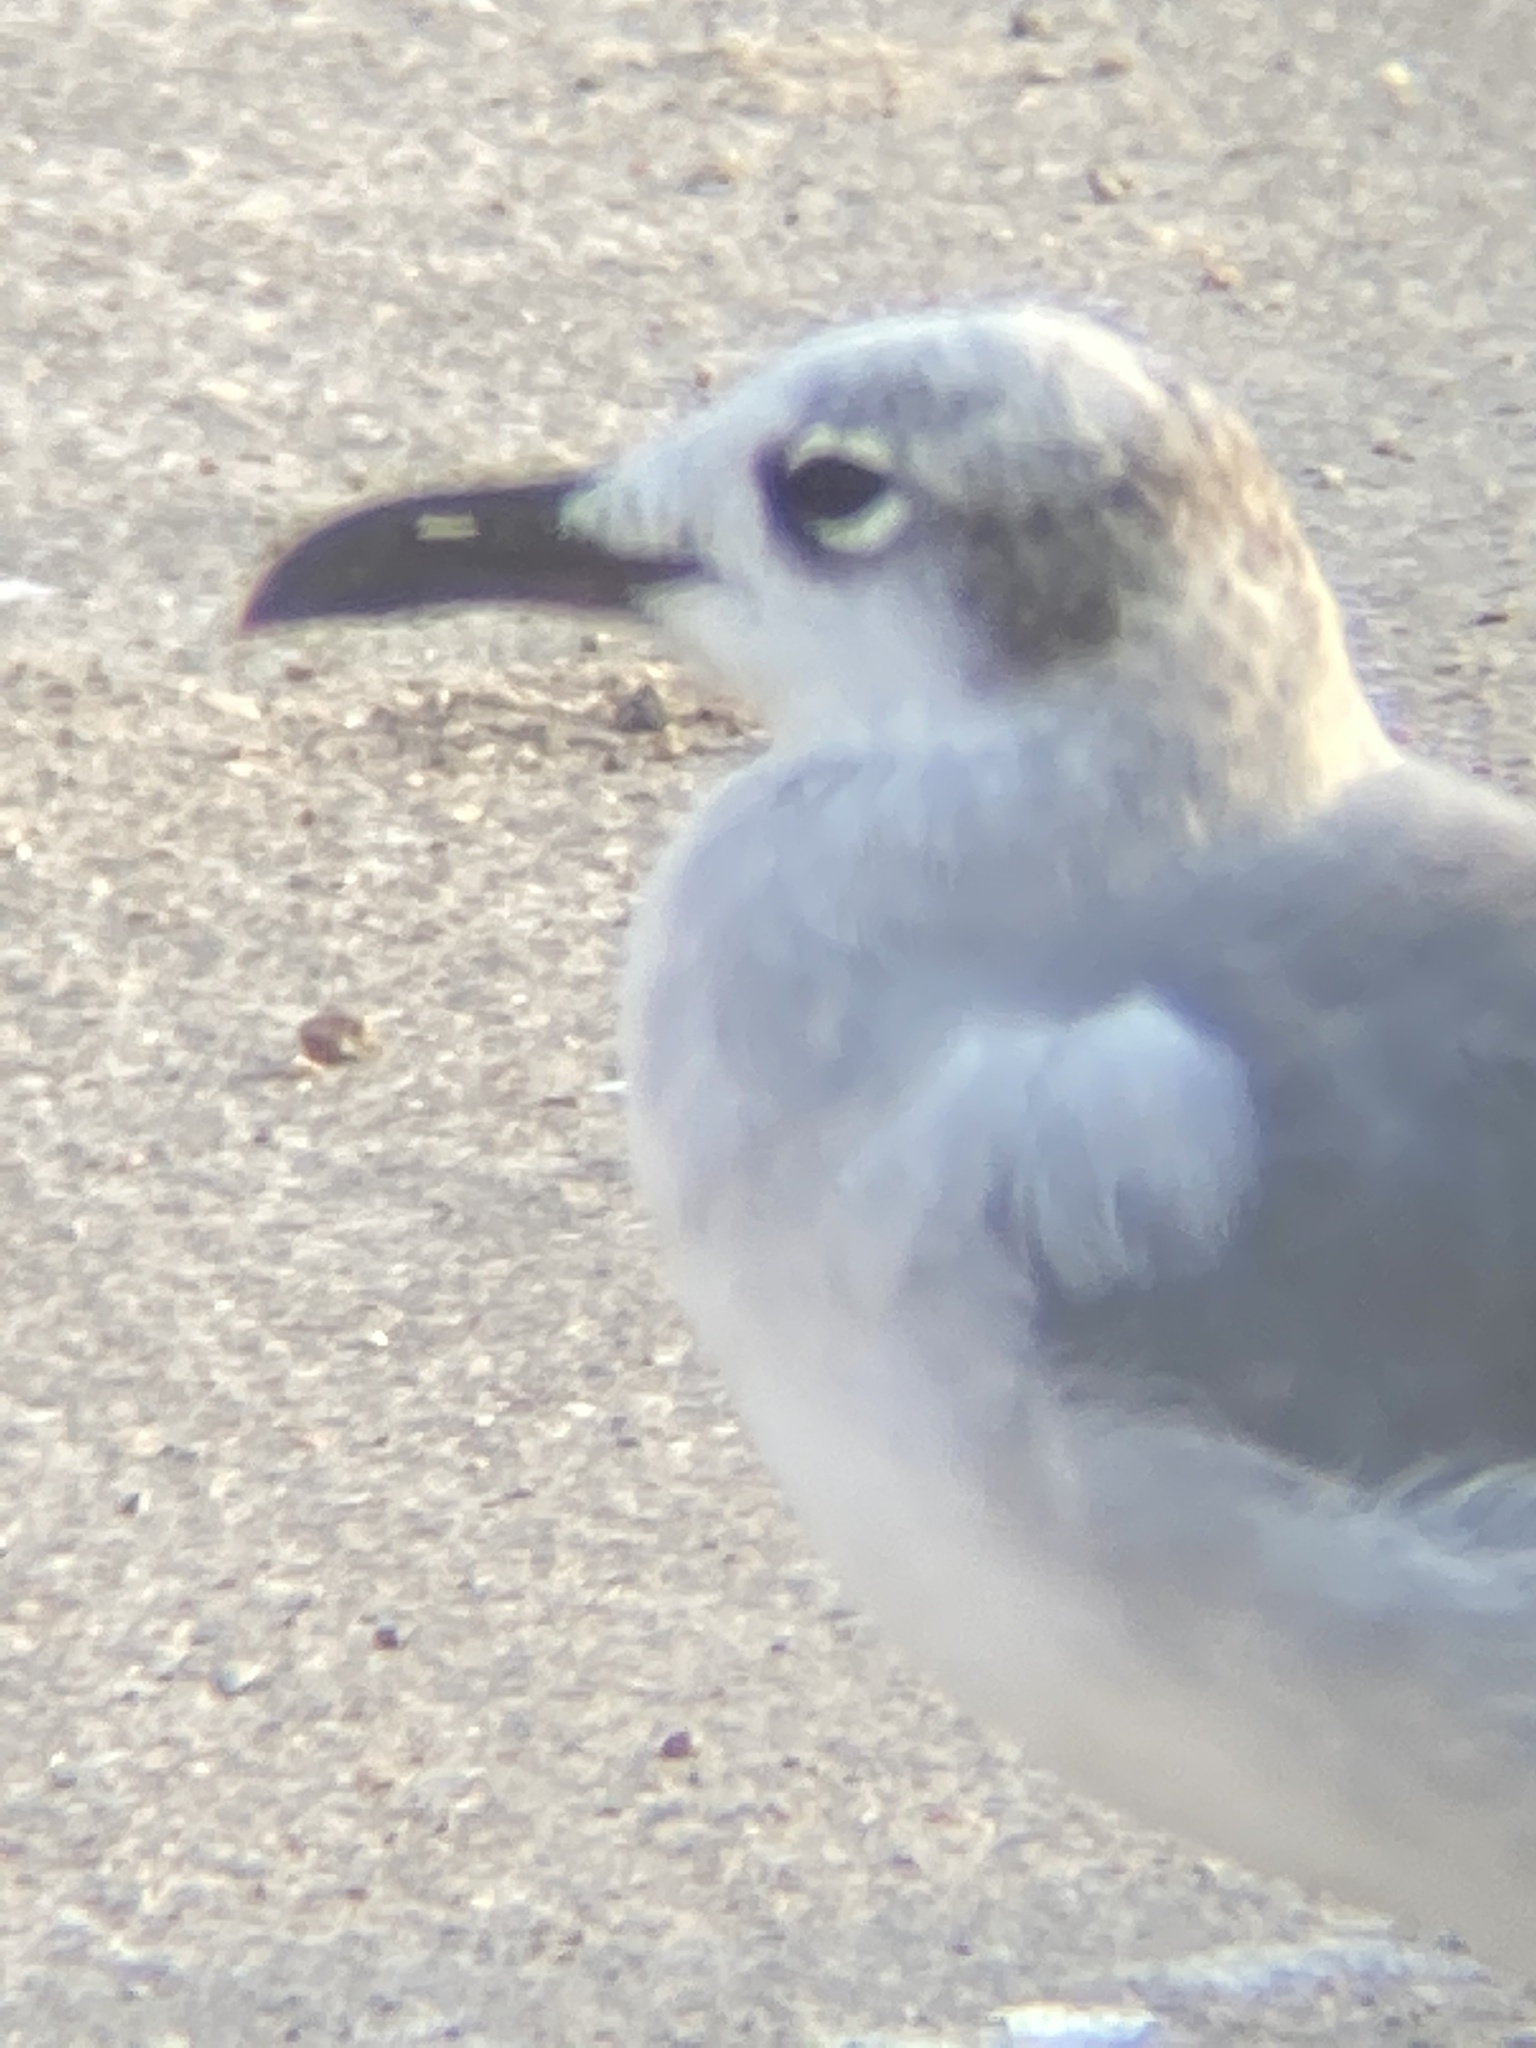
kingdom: Animalia
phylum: Chordata
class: Aves
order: Charadriiformes
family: Laridae
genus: Leucophaeus
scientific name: Leucophaeus atricilla
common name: Laughing gull
